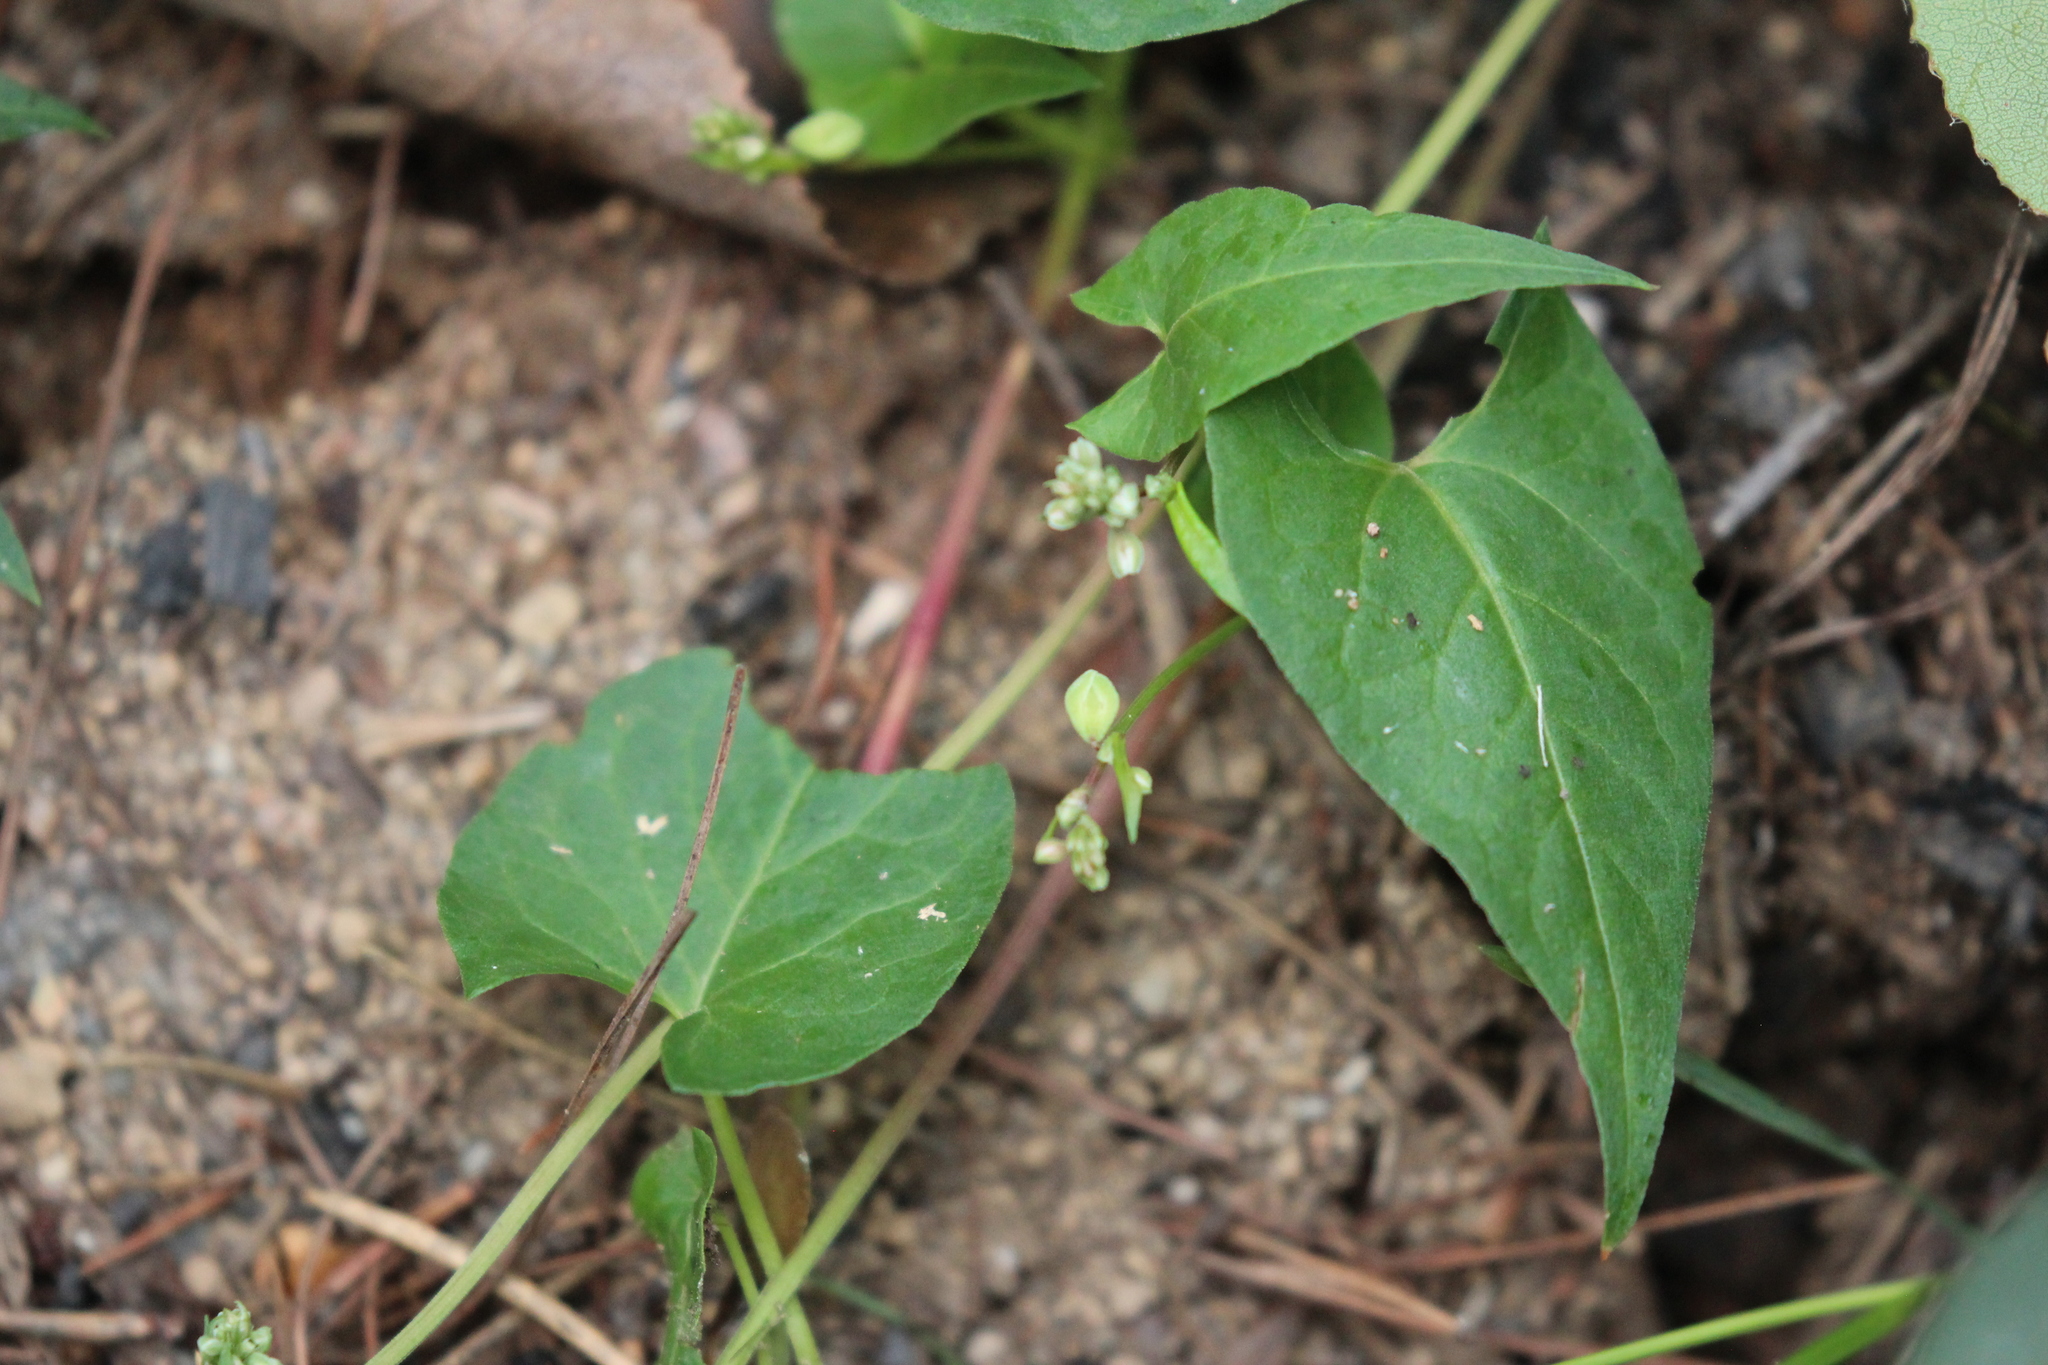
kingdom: Plantae
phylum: Tracheophyta
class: Magnoliopsida
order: Caryophyllales
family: Polygonaceae
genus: Fallopia
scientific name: Fallopia convolvulus
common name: Black bindweed
